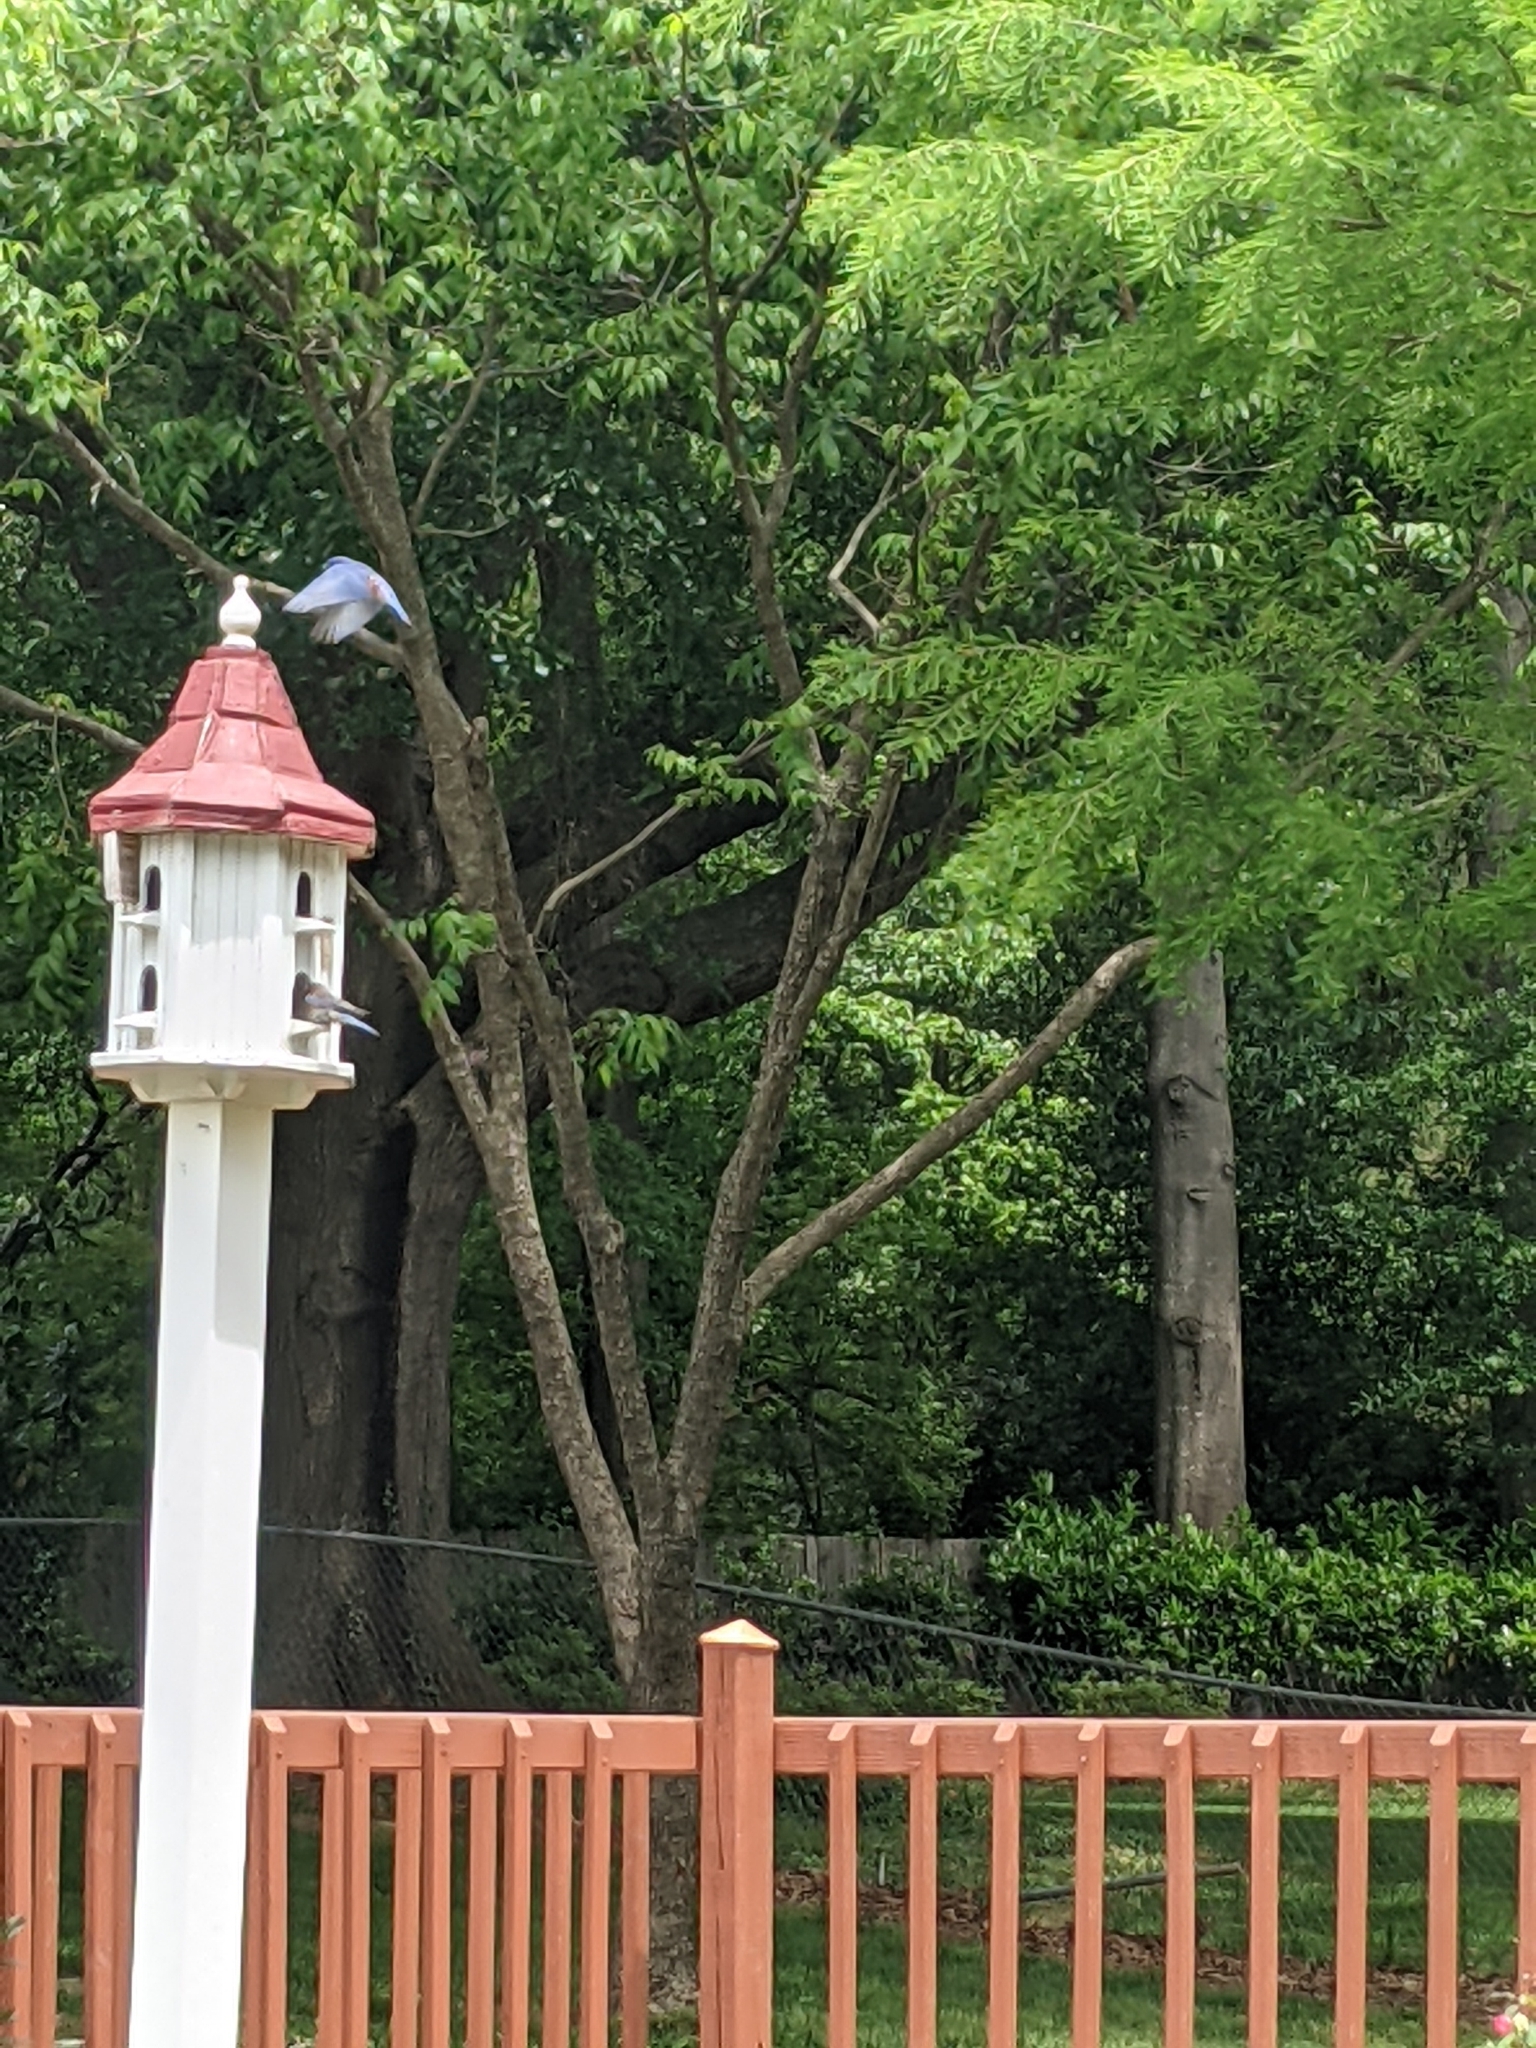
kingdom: Animalia
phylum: Chordata
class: Aves
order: Passeriformes
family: Turdidae
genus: Sialia
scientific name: Sialia sialis
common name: Eastern bluebird
